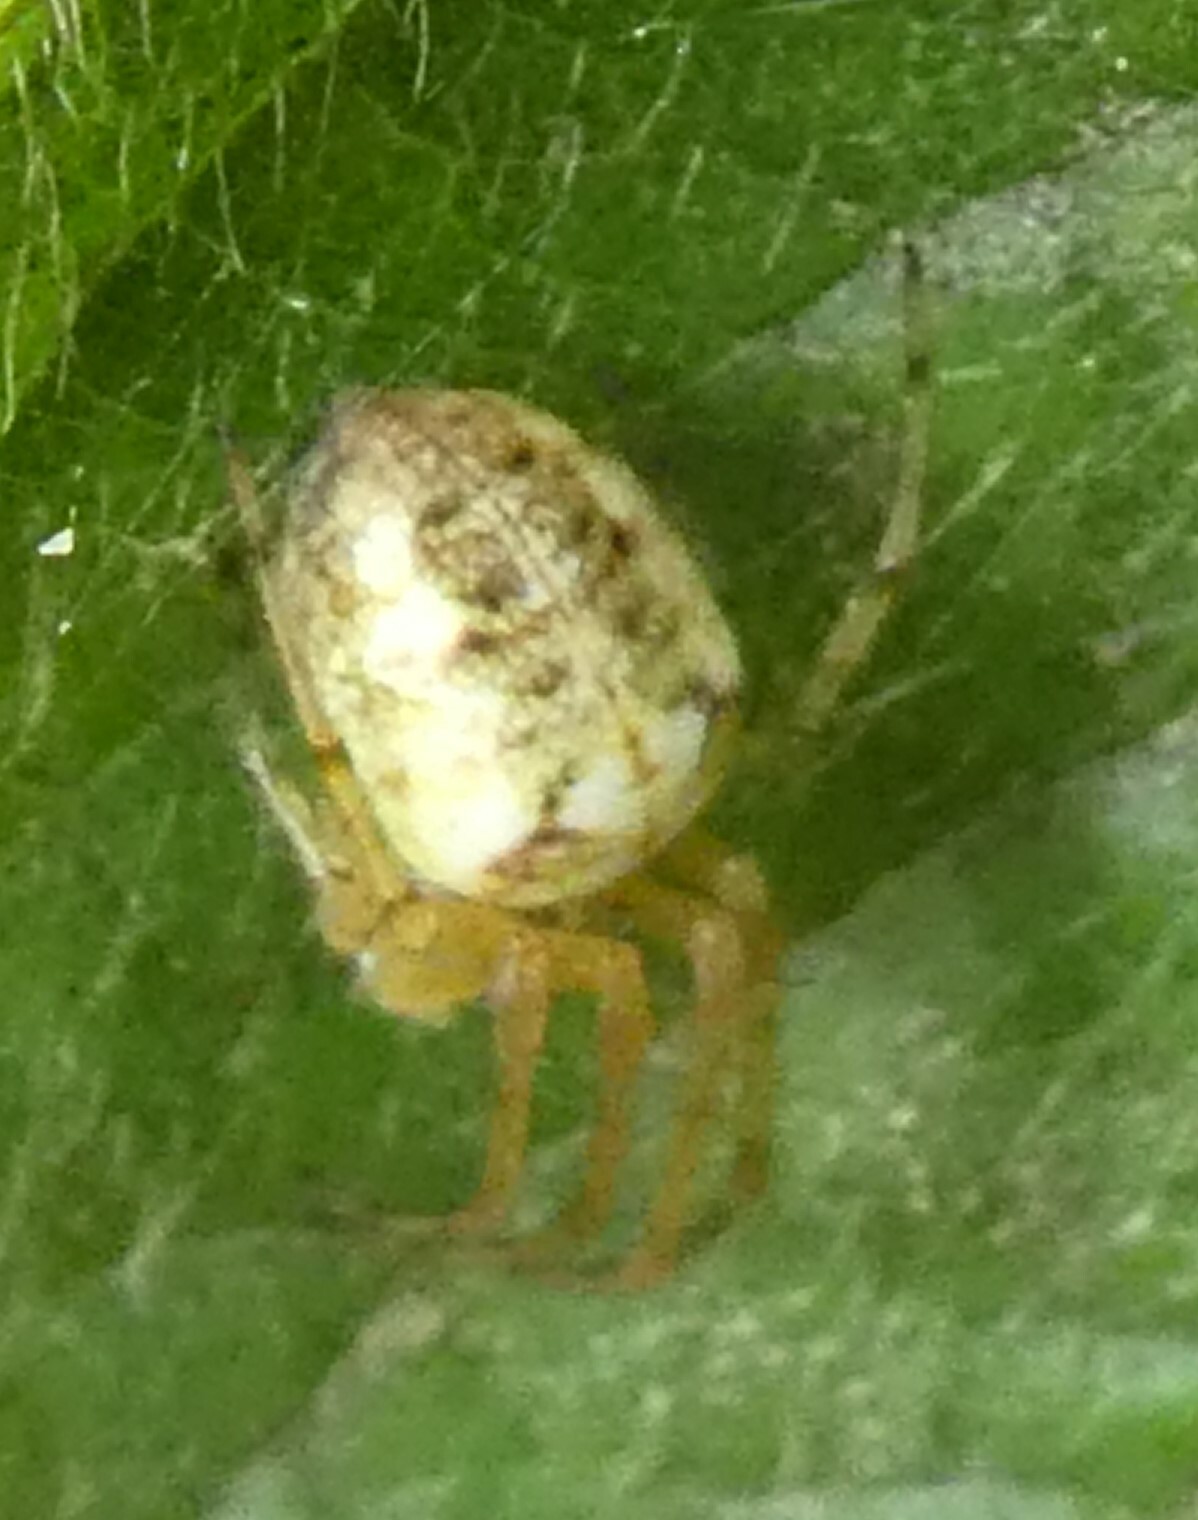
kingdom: Animalia
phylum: Arthropoda
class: Arachnida
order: Araneae
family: Tetragnathidae
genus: Metellina
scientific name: Metellina
